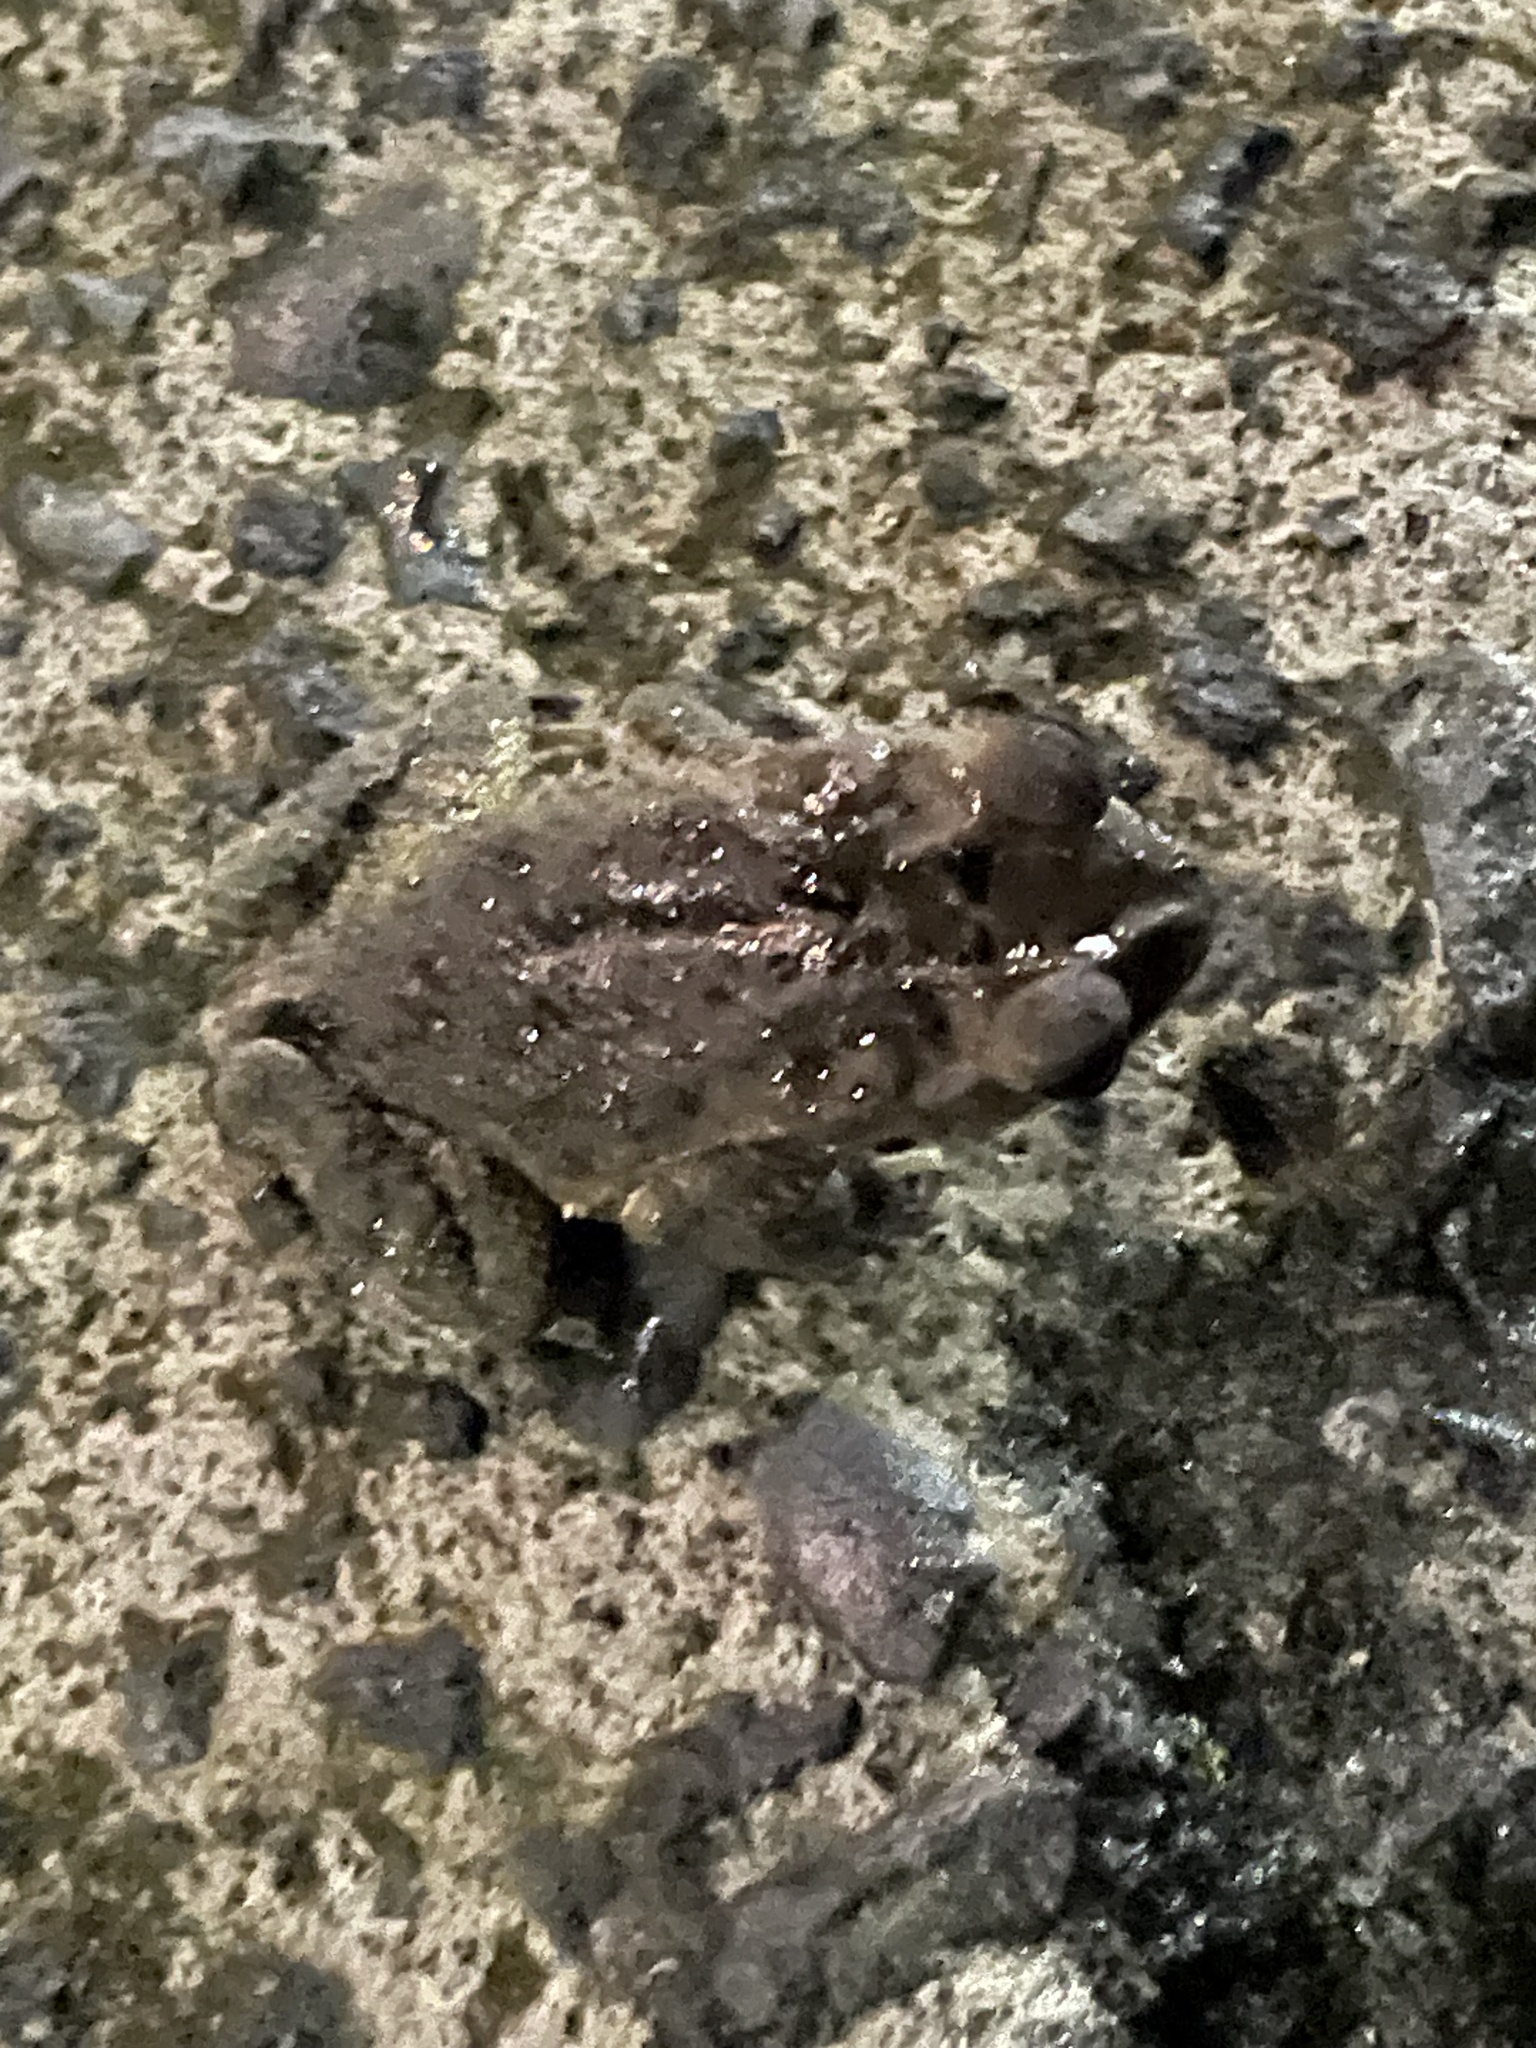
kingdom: Animalia
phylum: Chordata
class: Amphibia
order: Anura
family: Bufonidae
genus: Incilius
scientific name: Incilius melanochlorus
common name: Dark green toad
